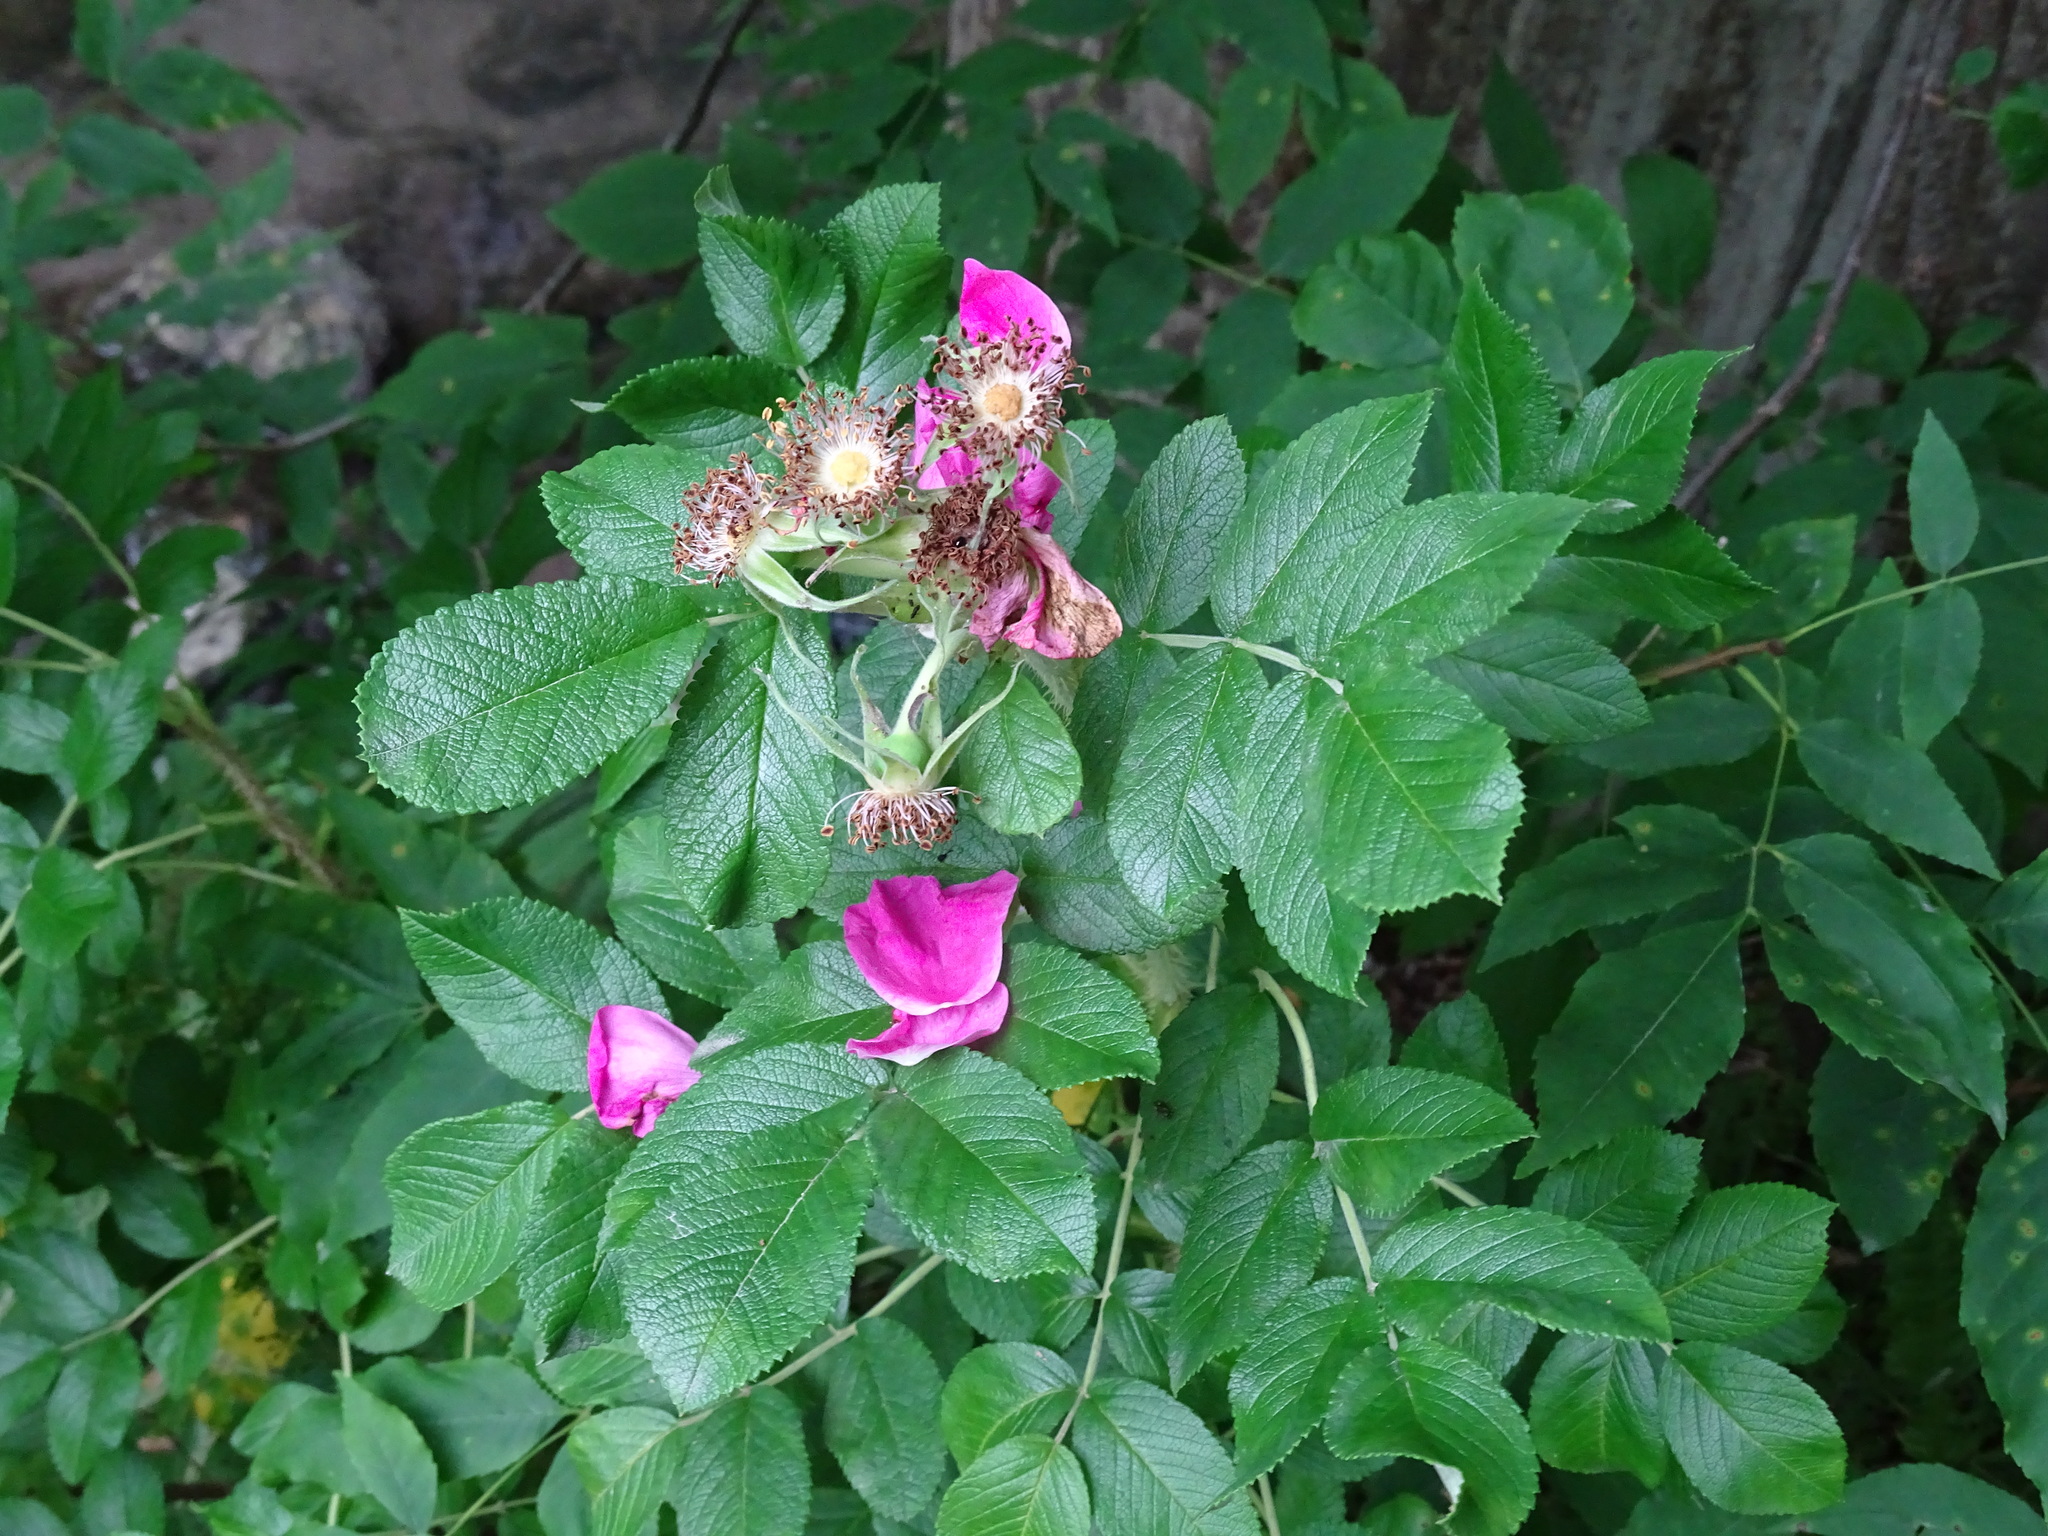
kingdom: Plantae
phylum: Tracheophyta
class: Magnoliopsida
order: Rosales
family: Rosaceae
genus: Rosa
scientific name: Rosa rugosa
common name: Japanese rose
